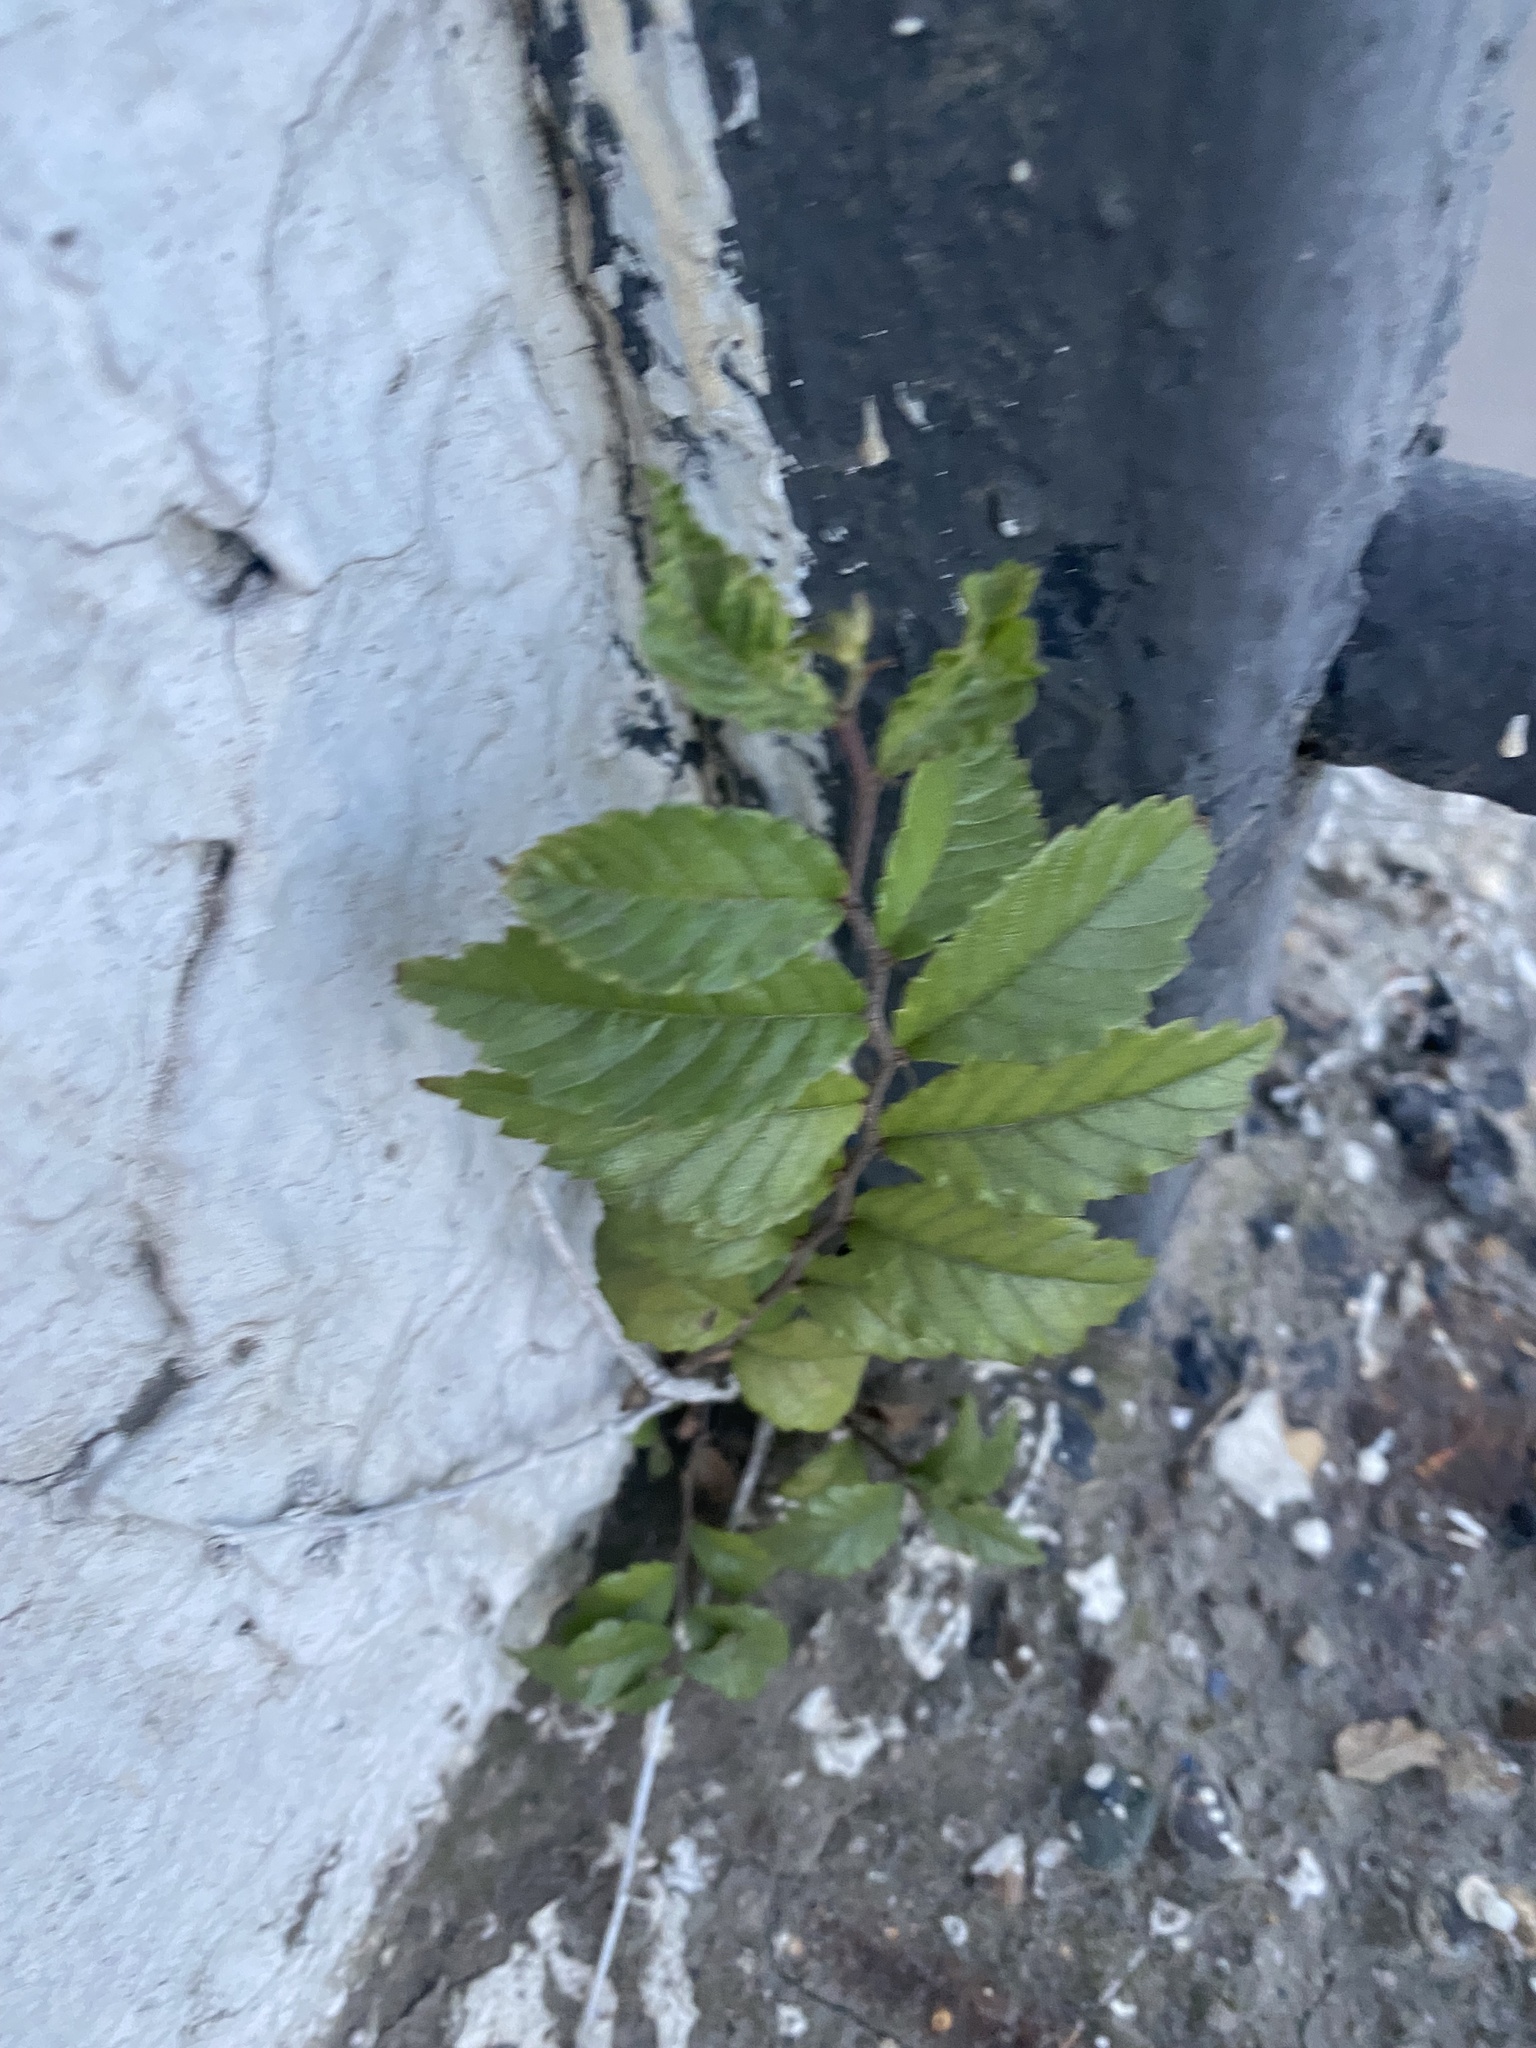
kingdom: Plantae
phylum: Tracheophyta
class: Magnoliopsida
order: Rosales
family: Ulmaceae
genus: Ulmus
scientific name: Ulmus pumila
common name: Siberian elm
